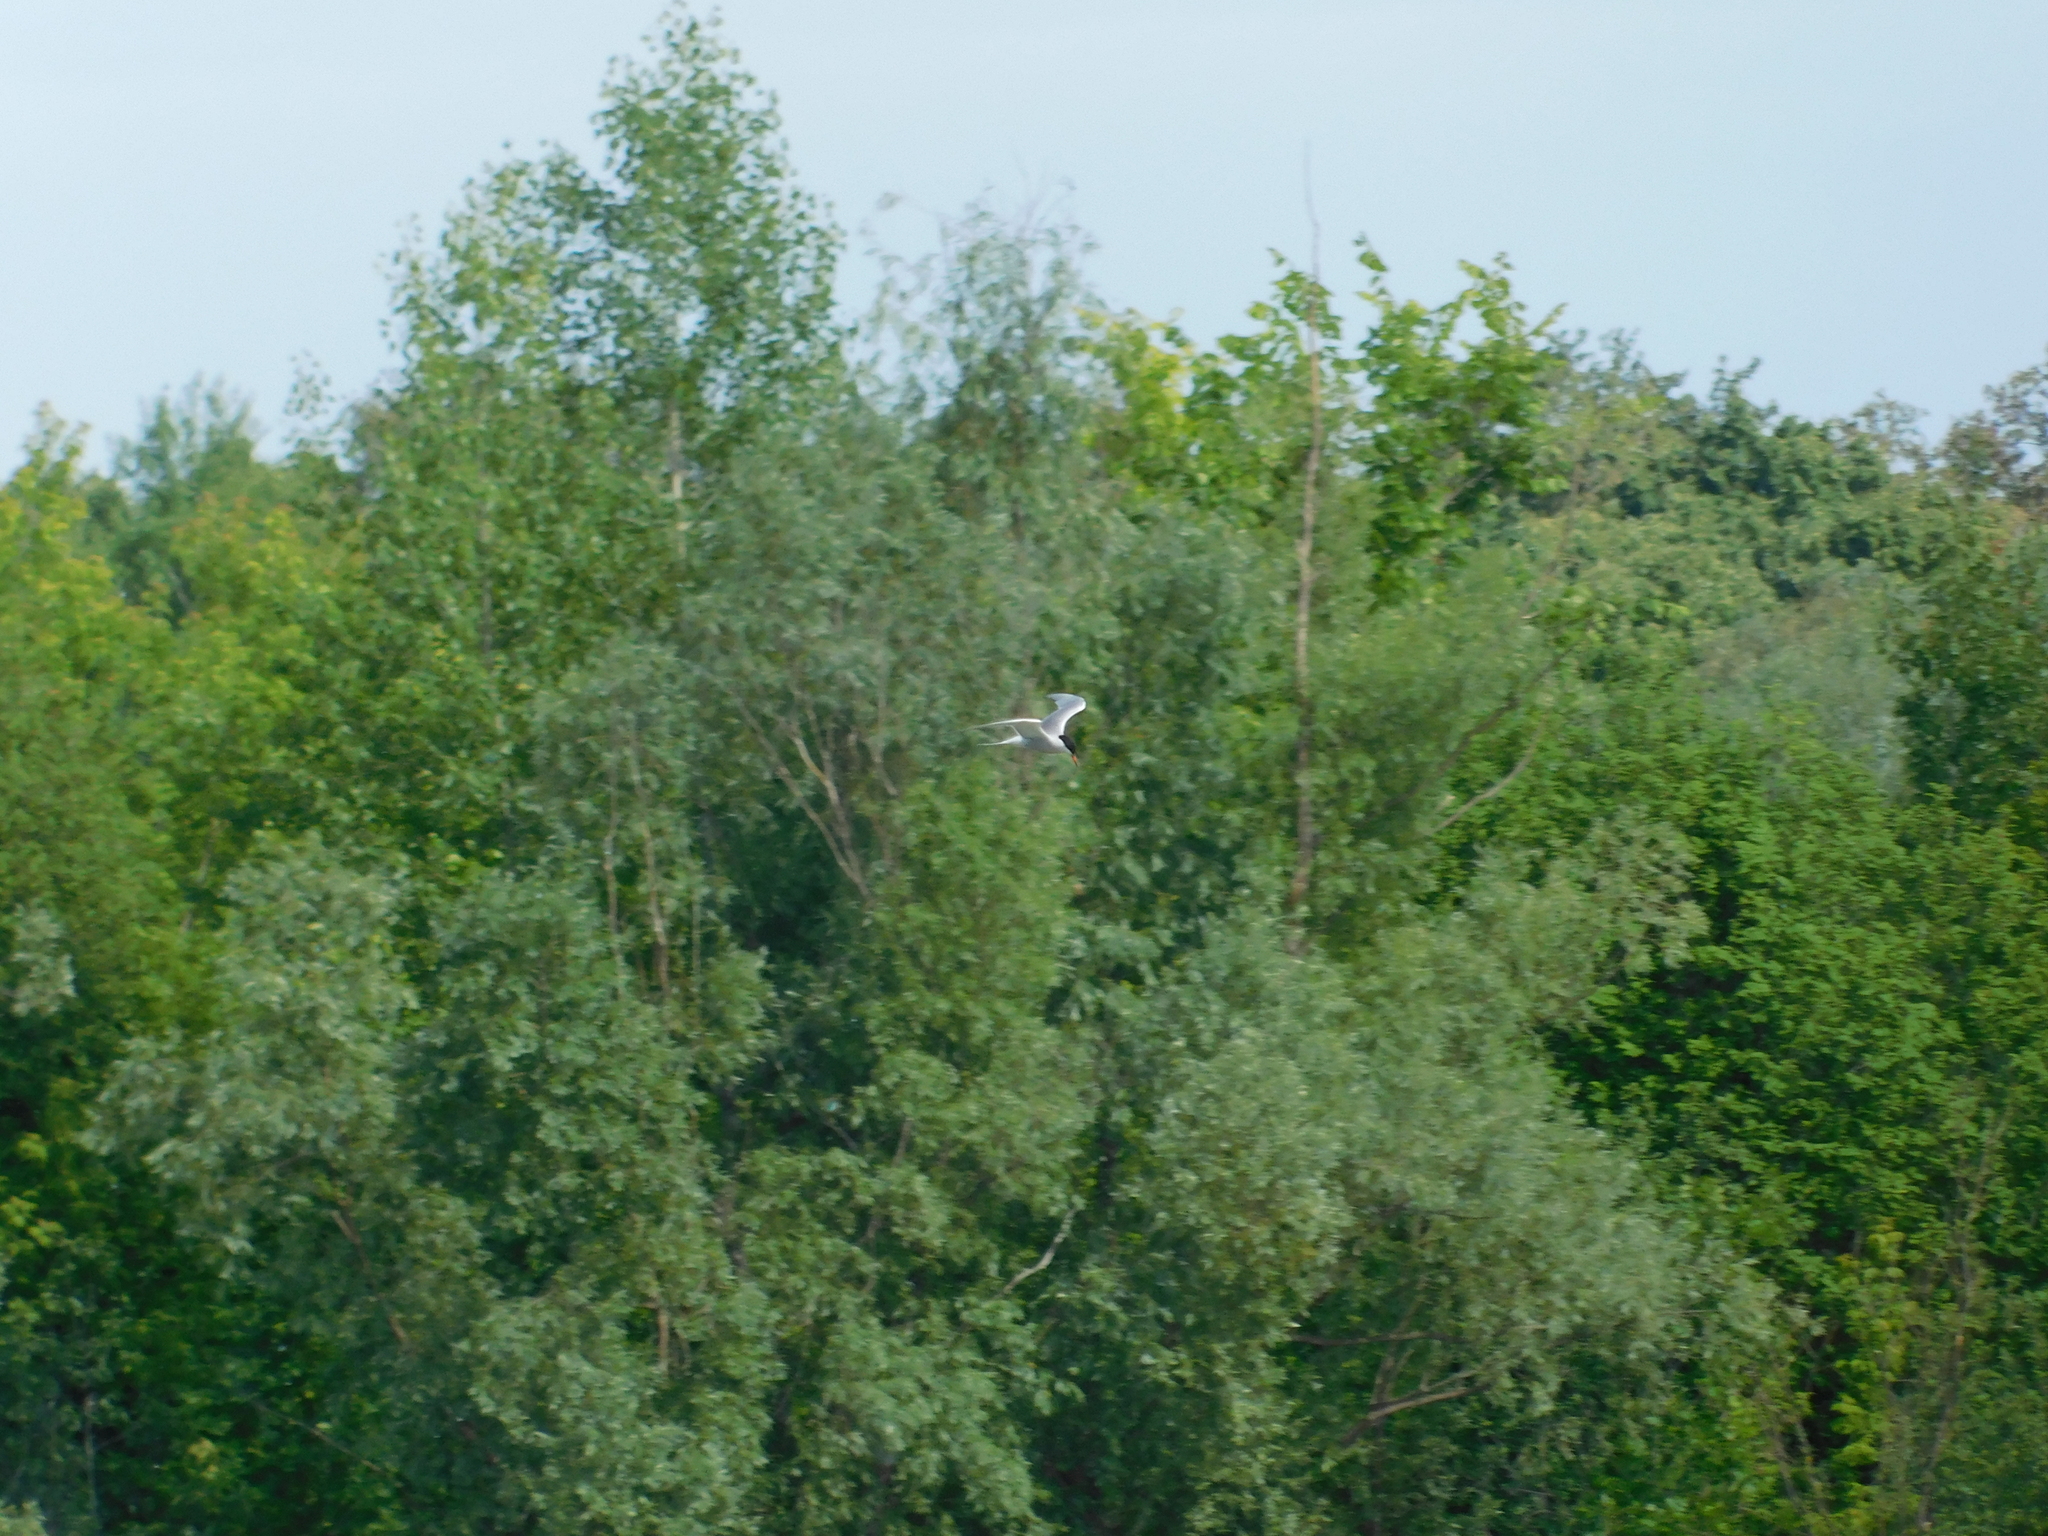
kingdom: Animalia
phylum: Chordata
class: Aves
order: Charadriiformes
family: Laridae
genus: Sterna
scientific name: Sterna hirundo
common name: Common tern
